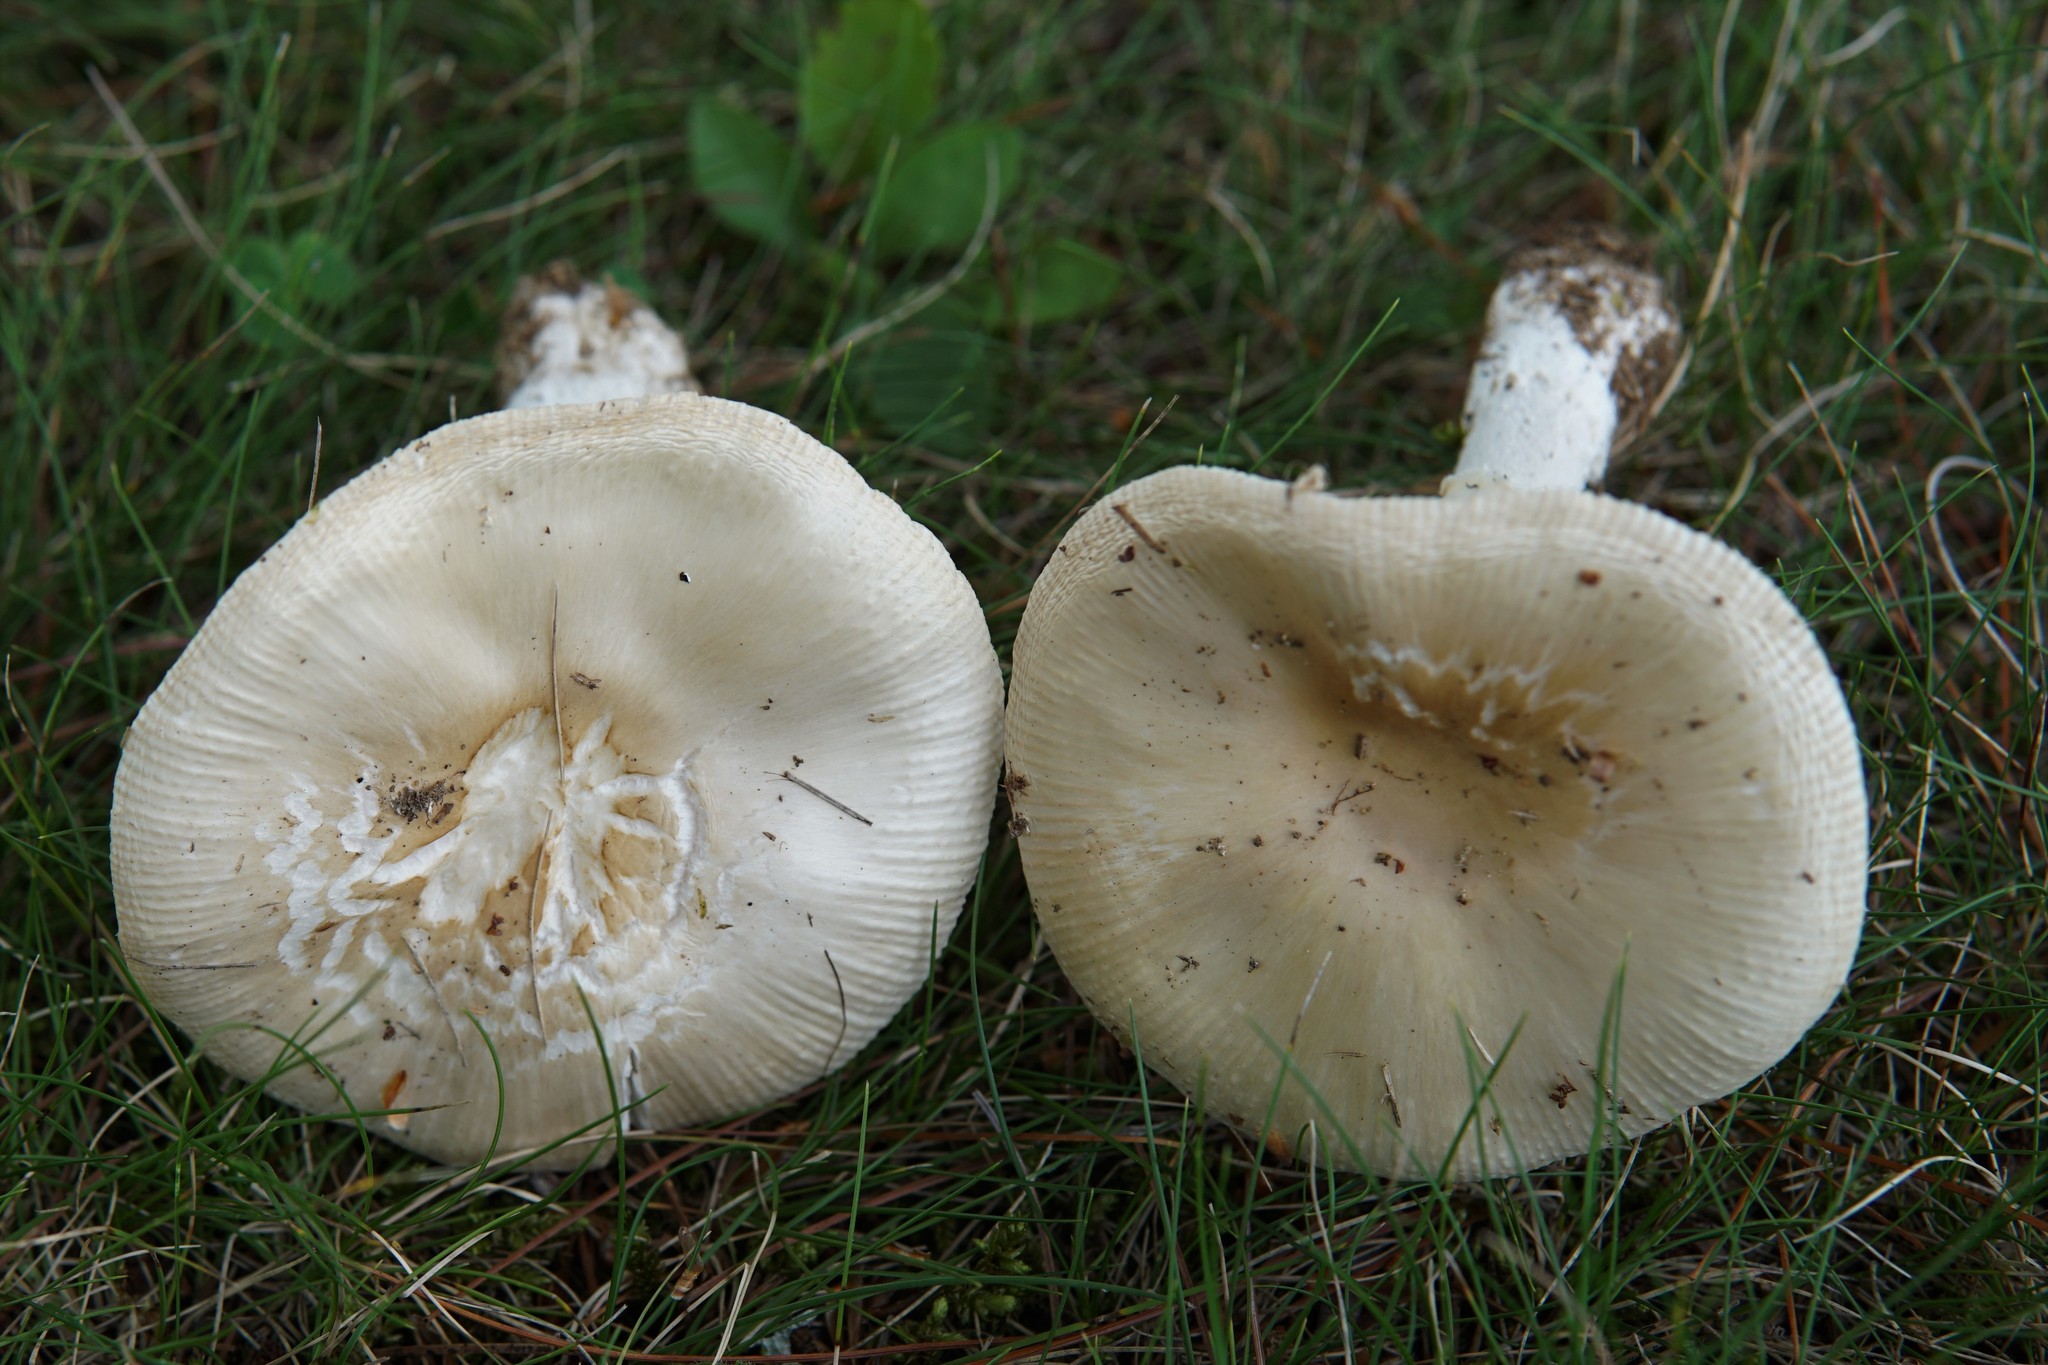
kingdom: Fungi
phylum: Basidiomycota
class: Agaricomycetes
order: Agaricales
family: Amanitaceae
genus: Amanita
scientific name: Amanita russuloides
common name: Russula-like amanita
